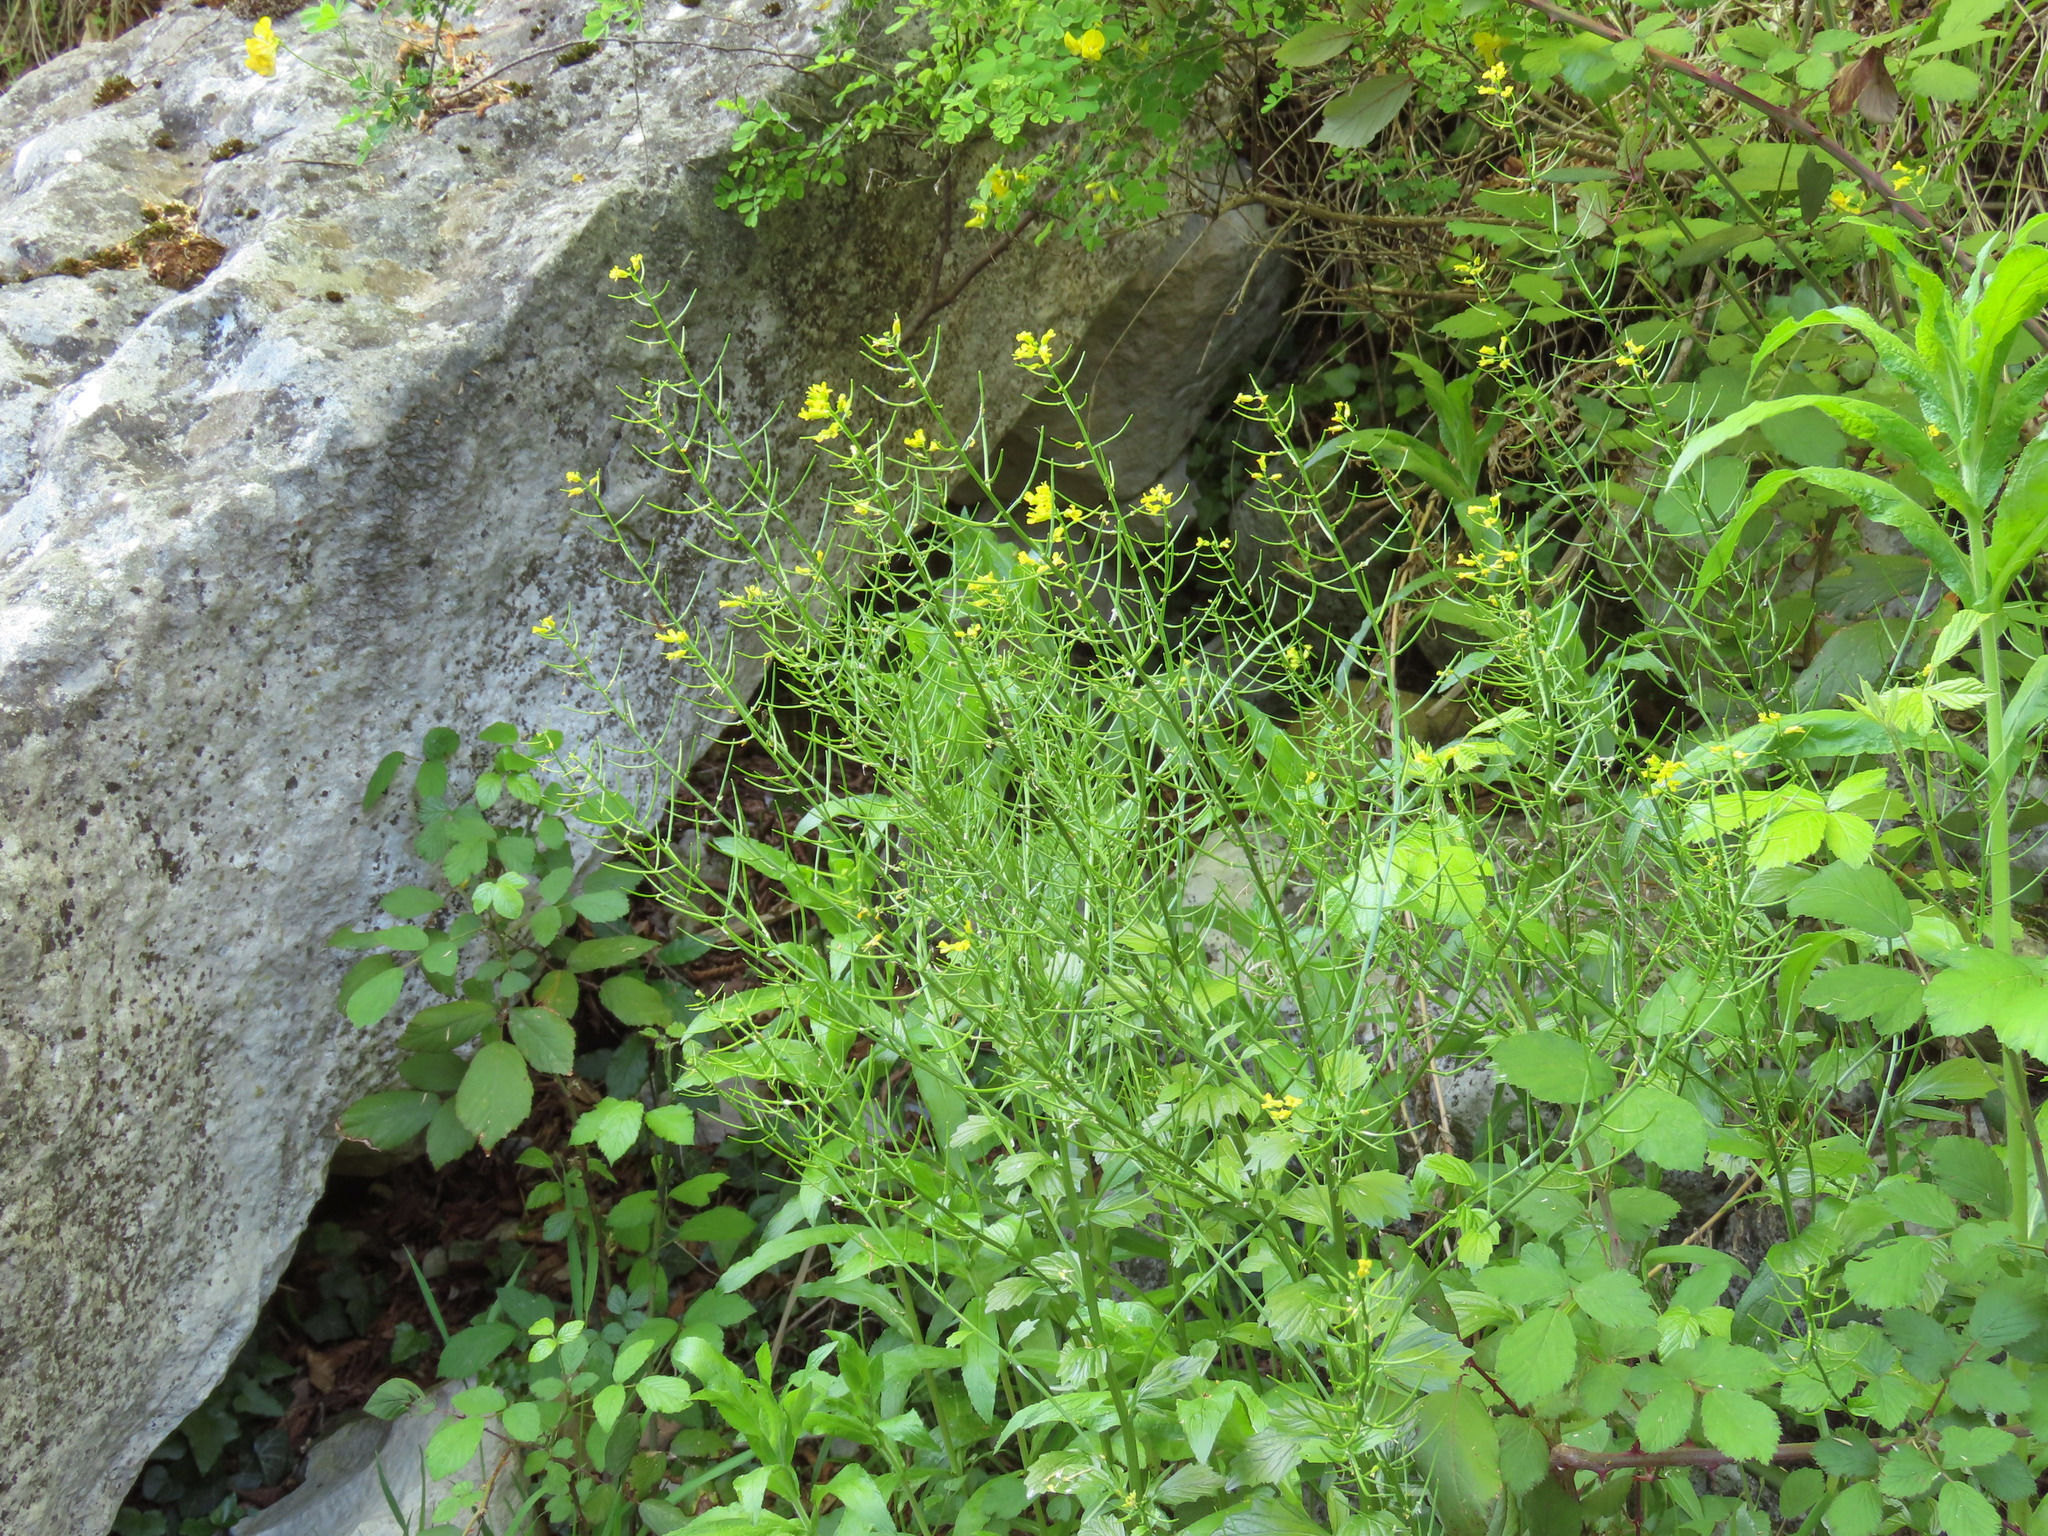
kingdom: Plantae
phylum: Tracheophyta
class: Magnoliopsida
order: Brassicales
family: Brassicaceae
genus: Barbarea
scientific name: Barbarea vulgaris
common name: Cressy-greens
